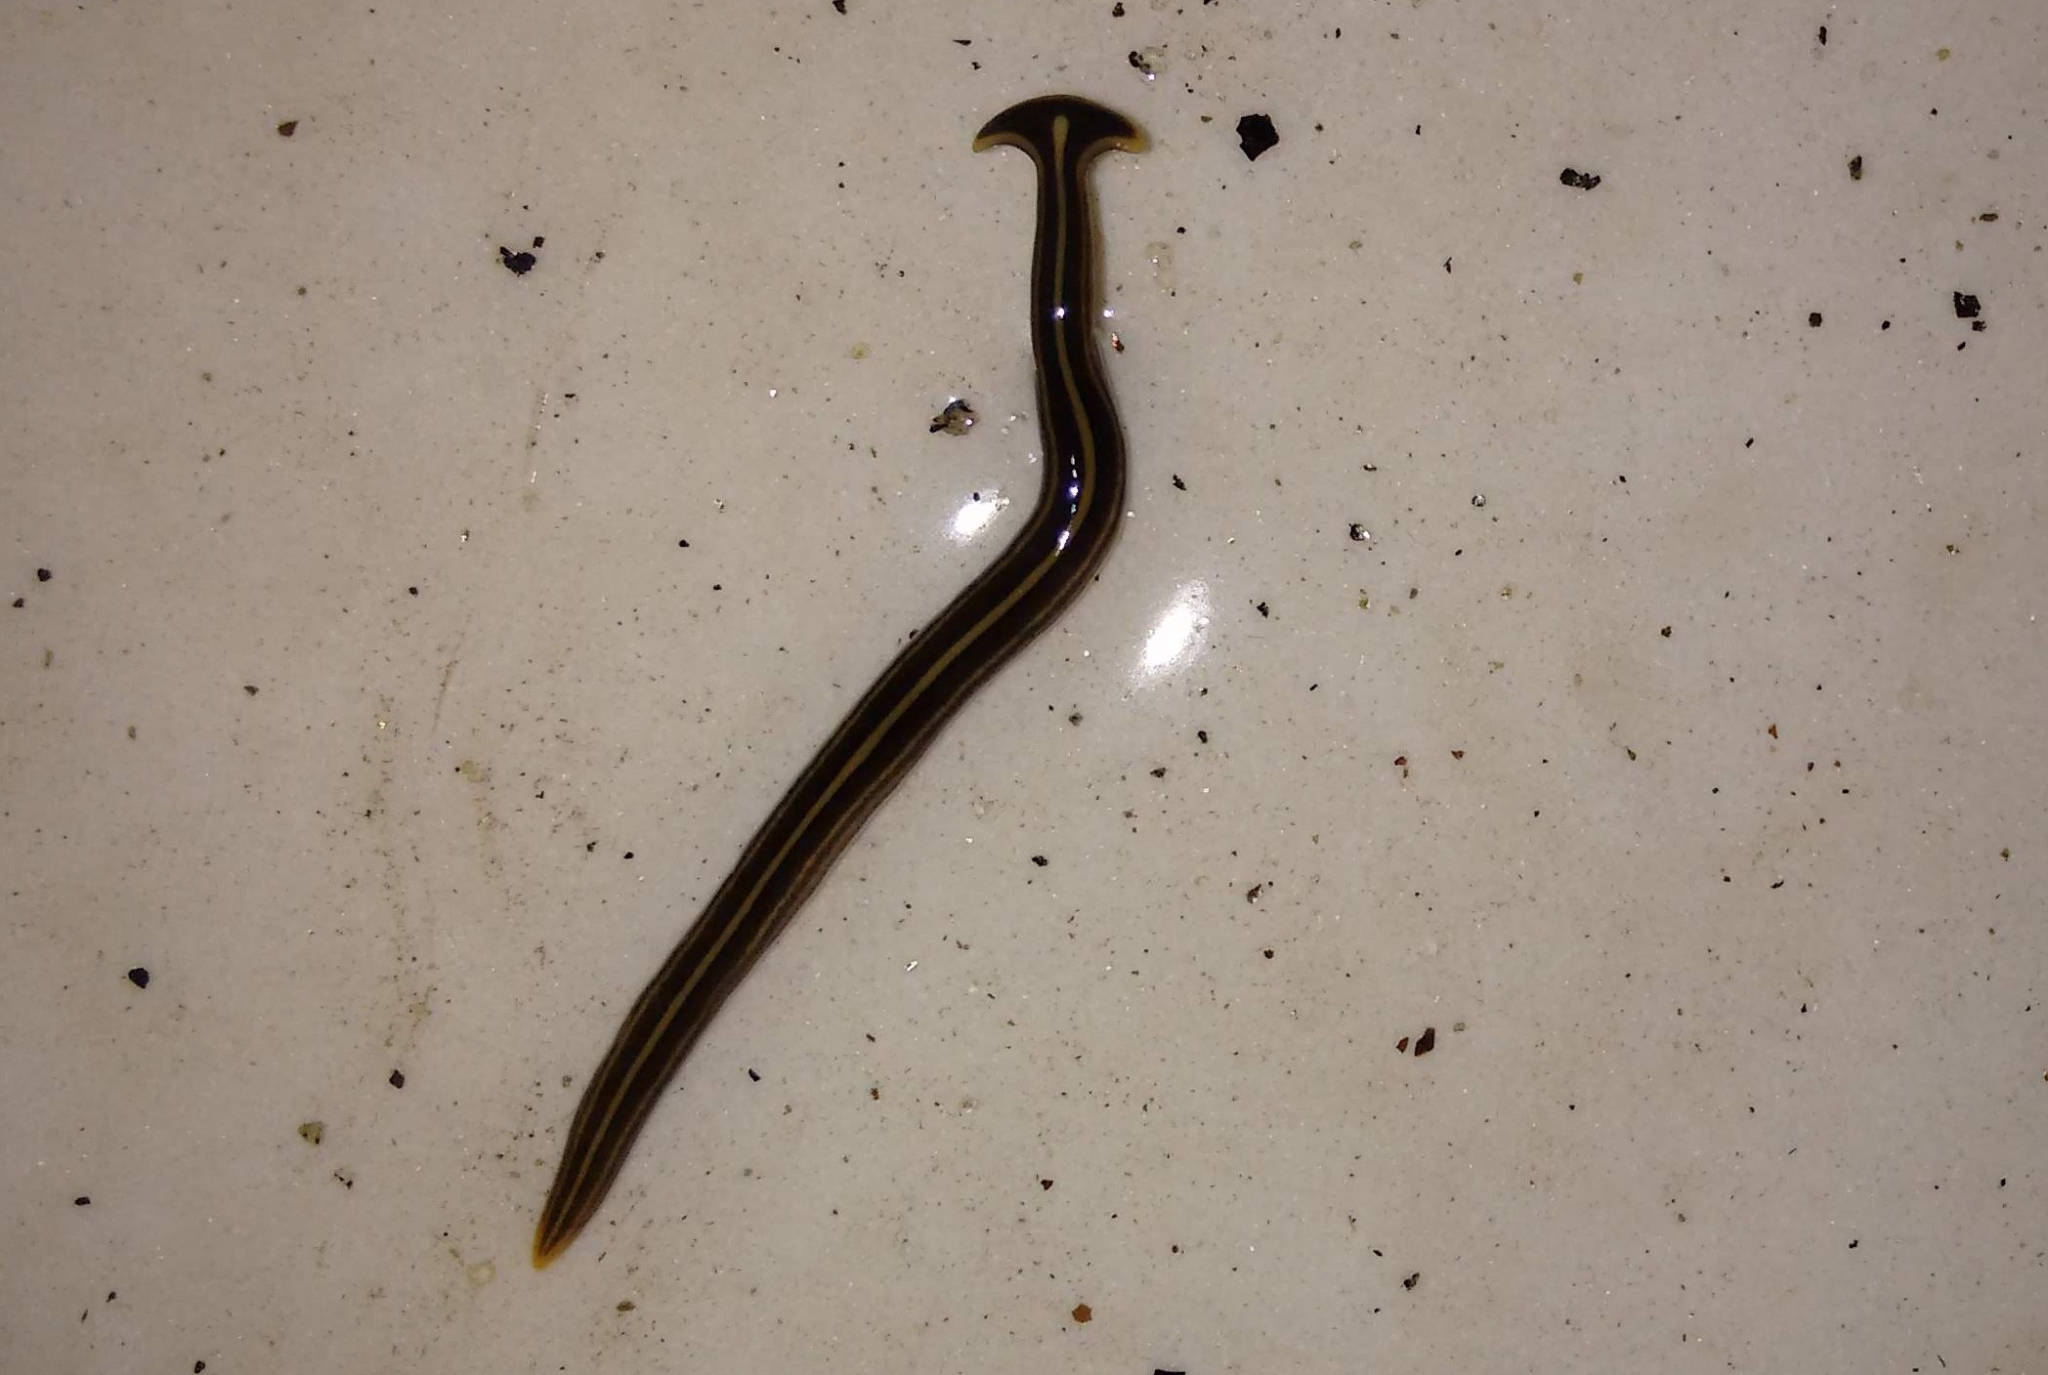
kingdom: Animalia
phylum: Platyhelminthes
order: Tricladida
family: Geoplanidae
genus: Humbertium
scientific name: Humbertium proserpina
